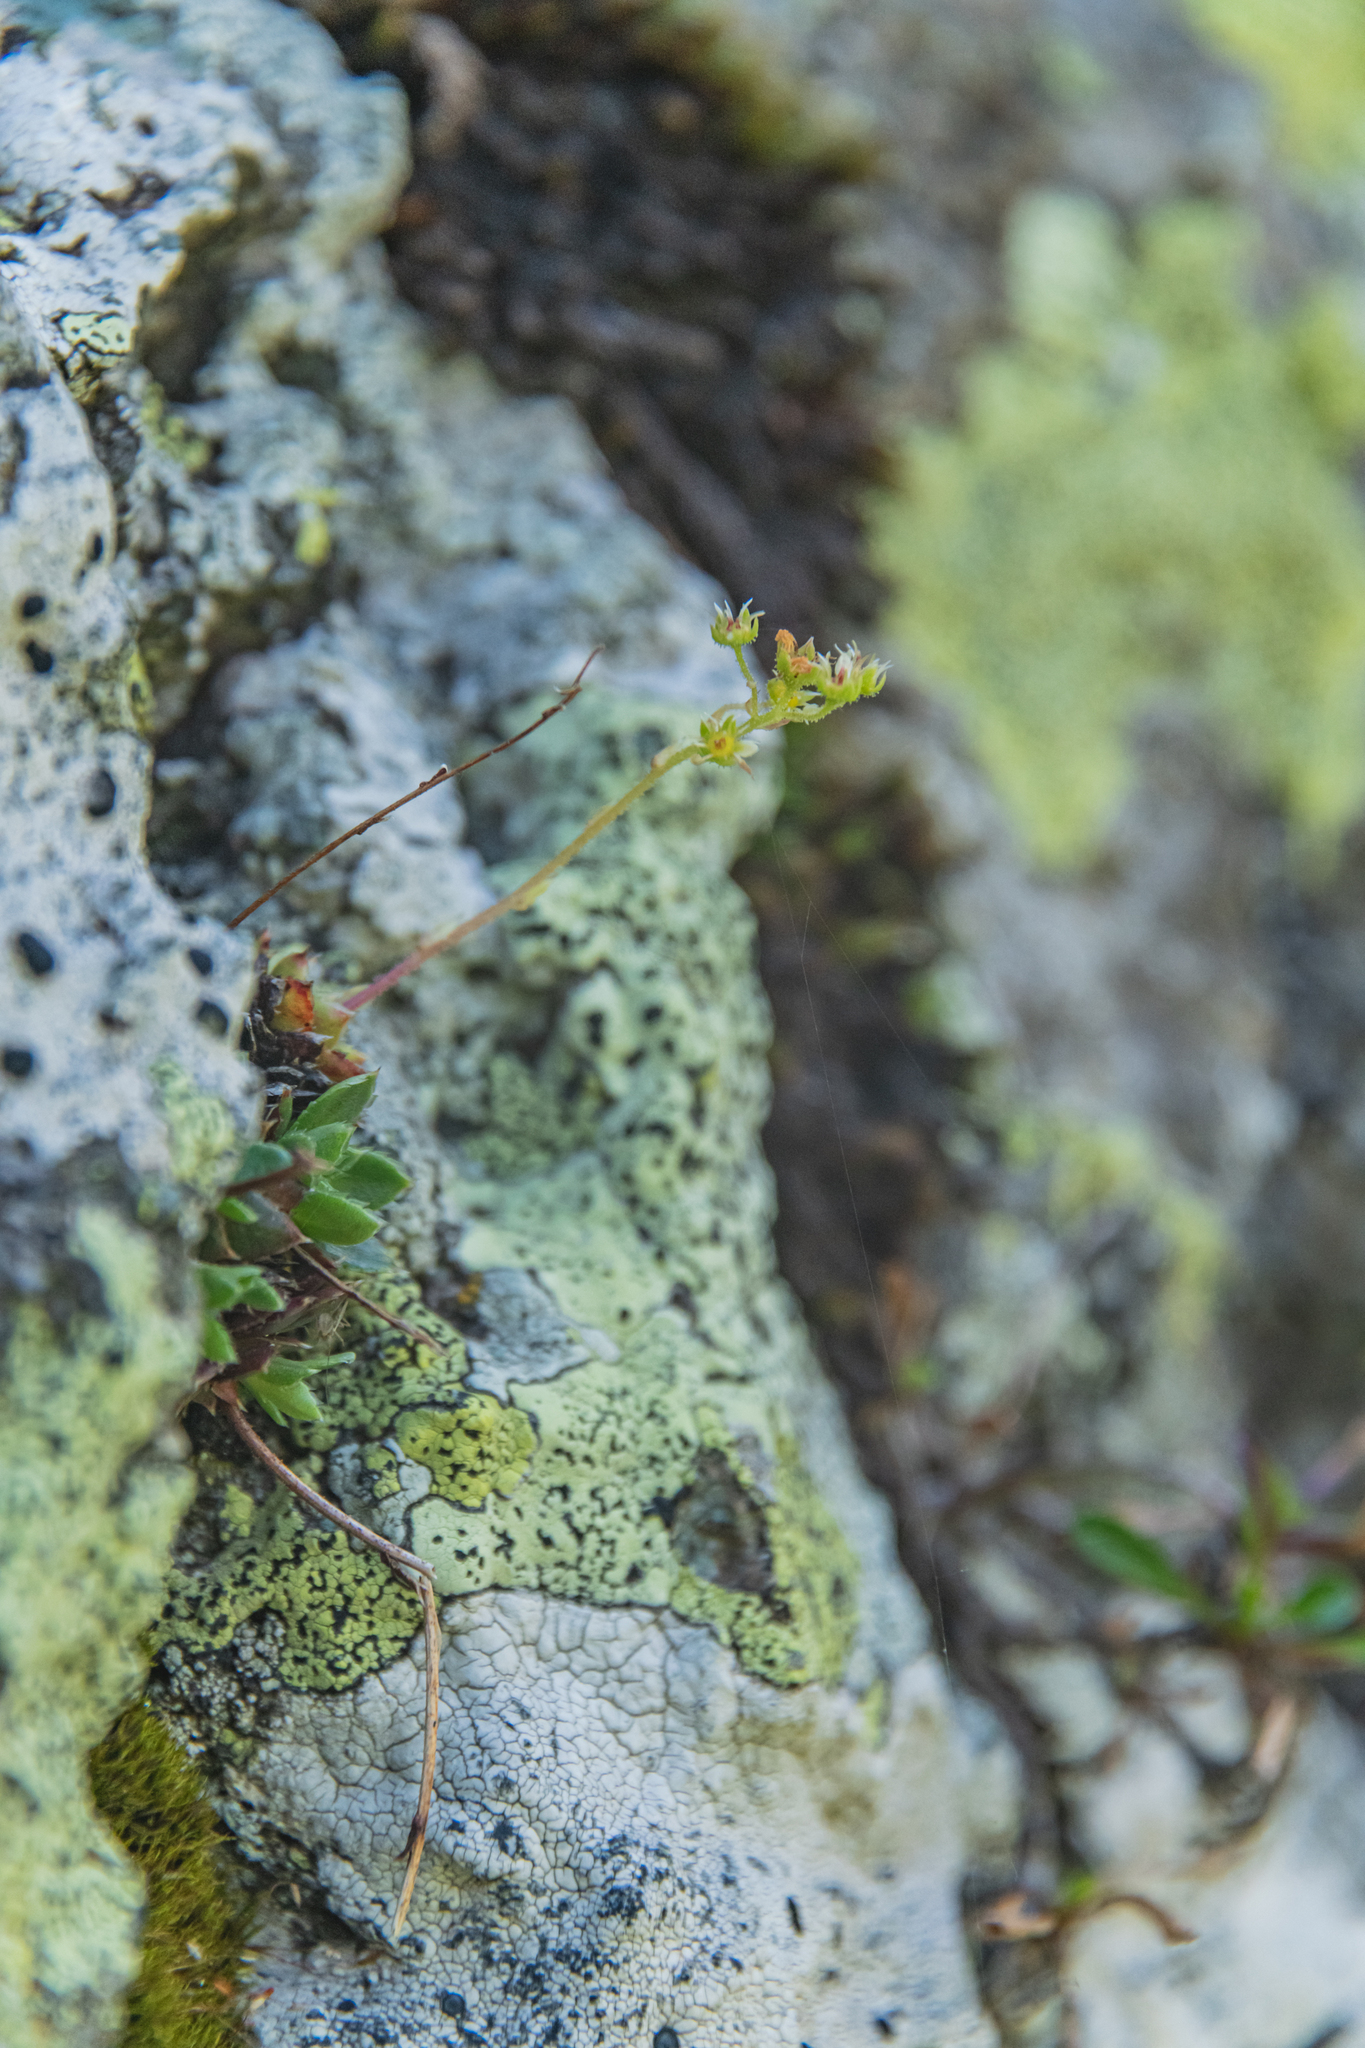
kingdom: Plantae
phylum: Tracheophyta
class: Magnoliopsida
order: Saxifragales
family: Saxifragaceae
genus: Saxifraga
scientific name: Saxifraga paniculata
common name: Livelong saxifrage
